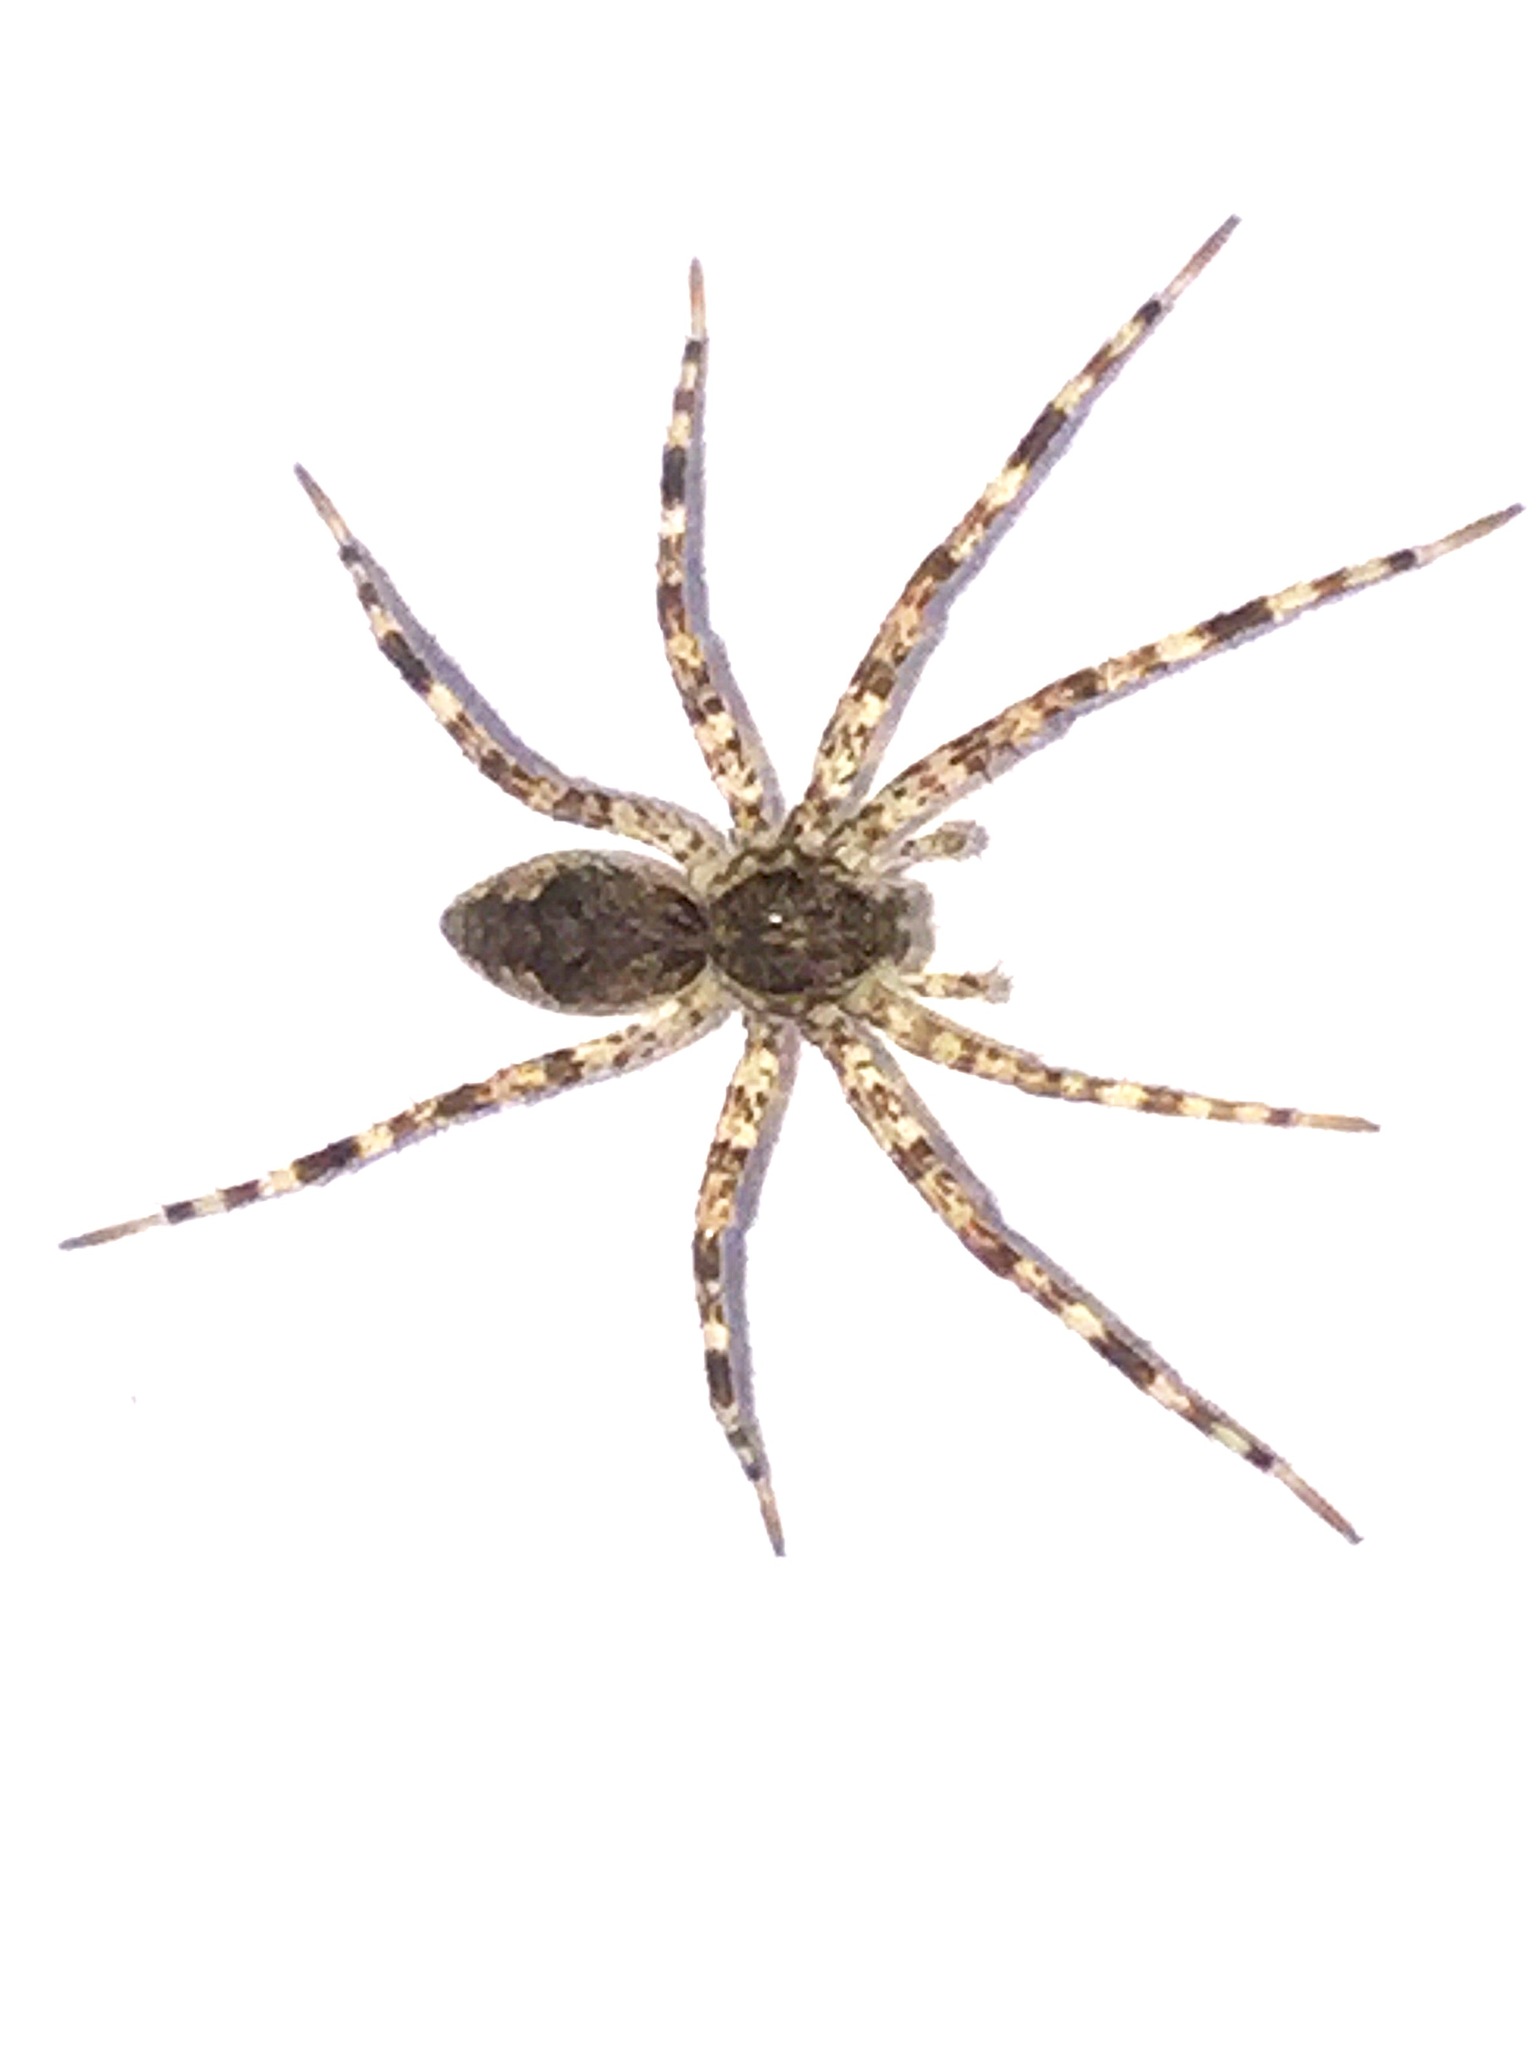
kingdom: Animalia
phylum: Arthropoda
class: Arachnida
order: Araneae
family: Pisauridae
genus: Dolomedes
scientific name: Dolomedes tenebrosus
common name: Dark fishing spider
